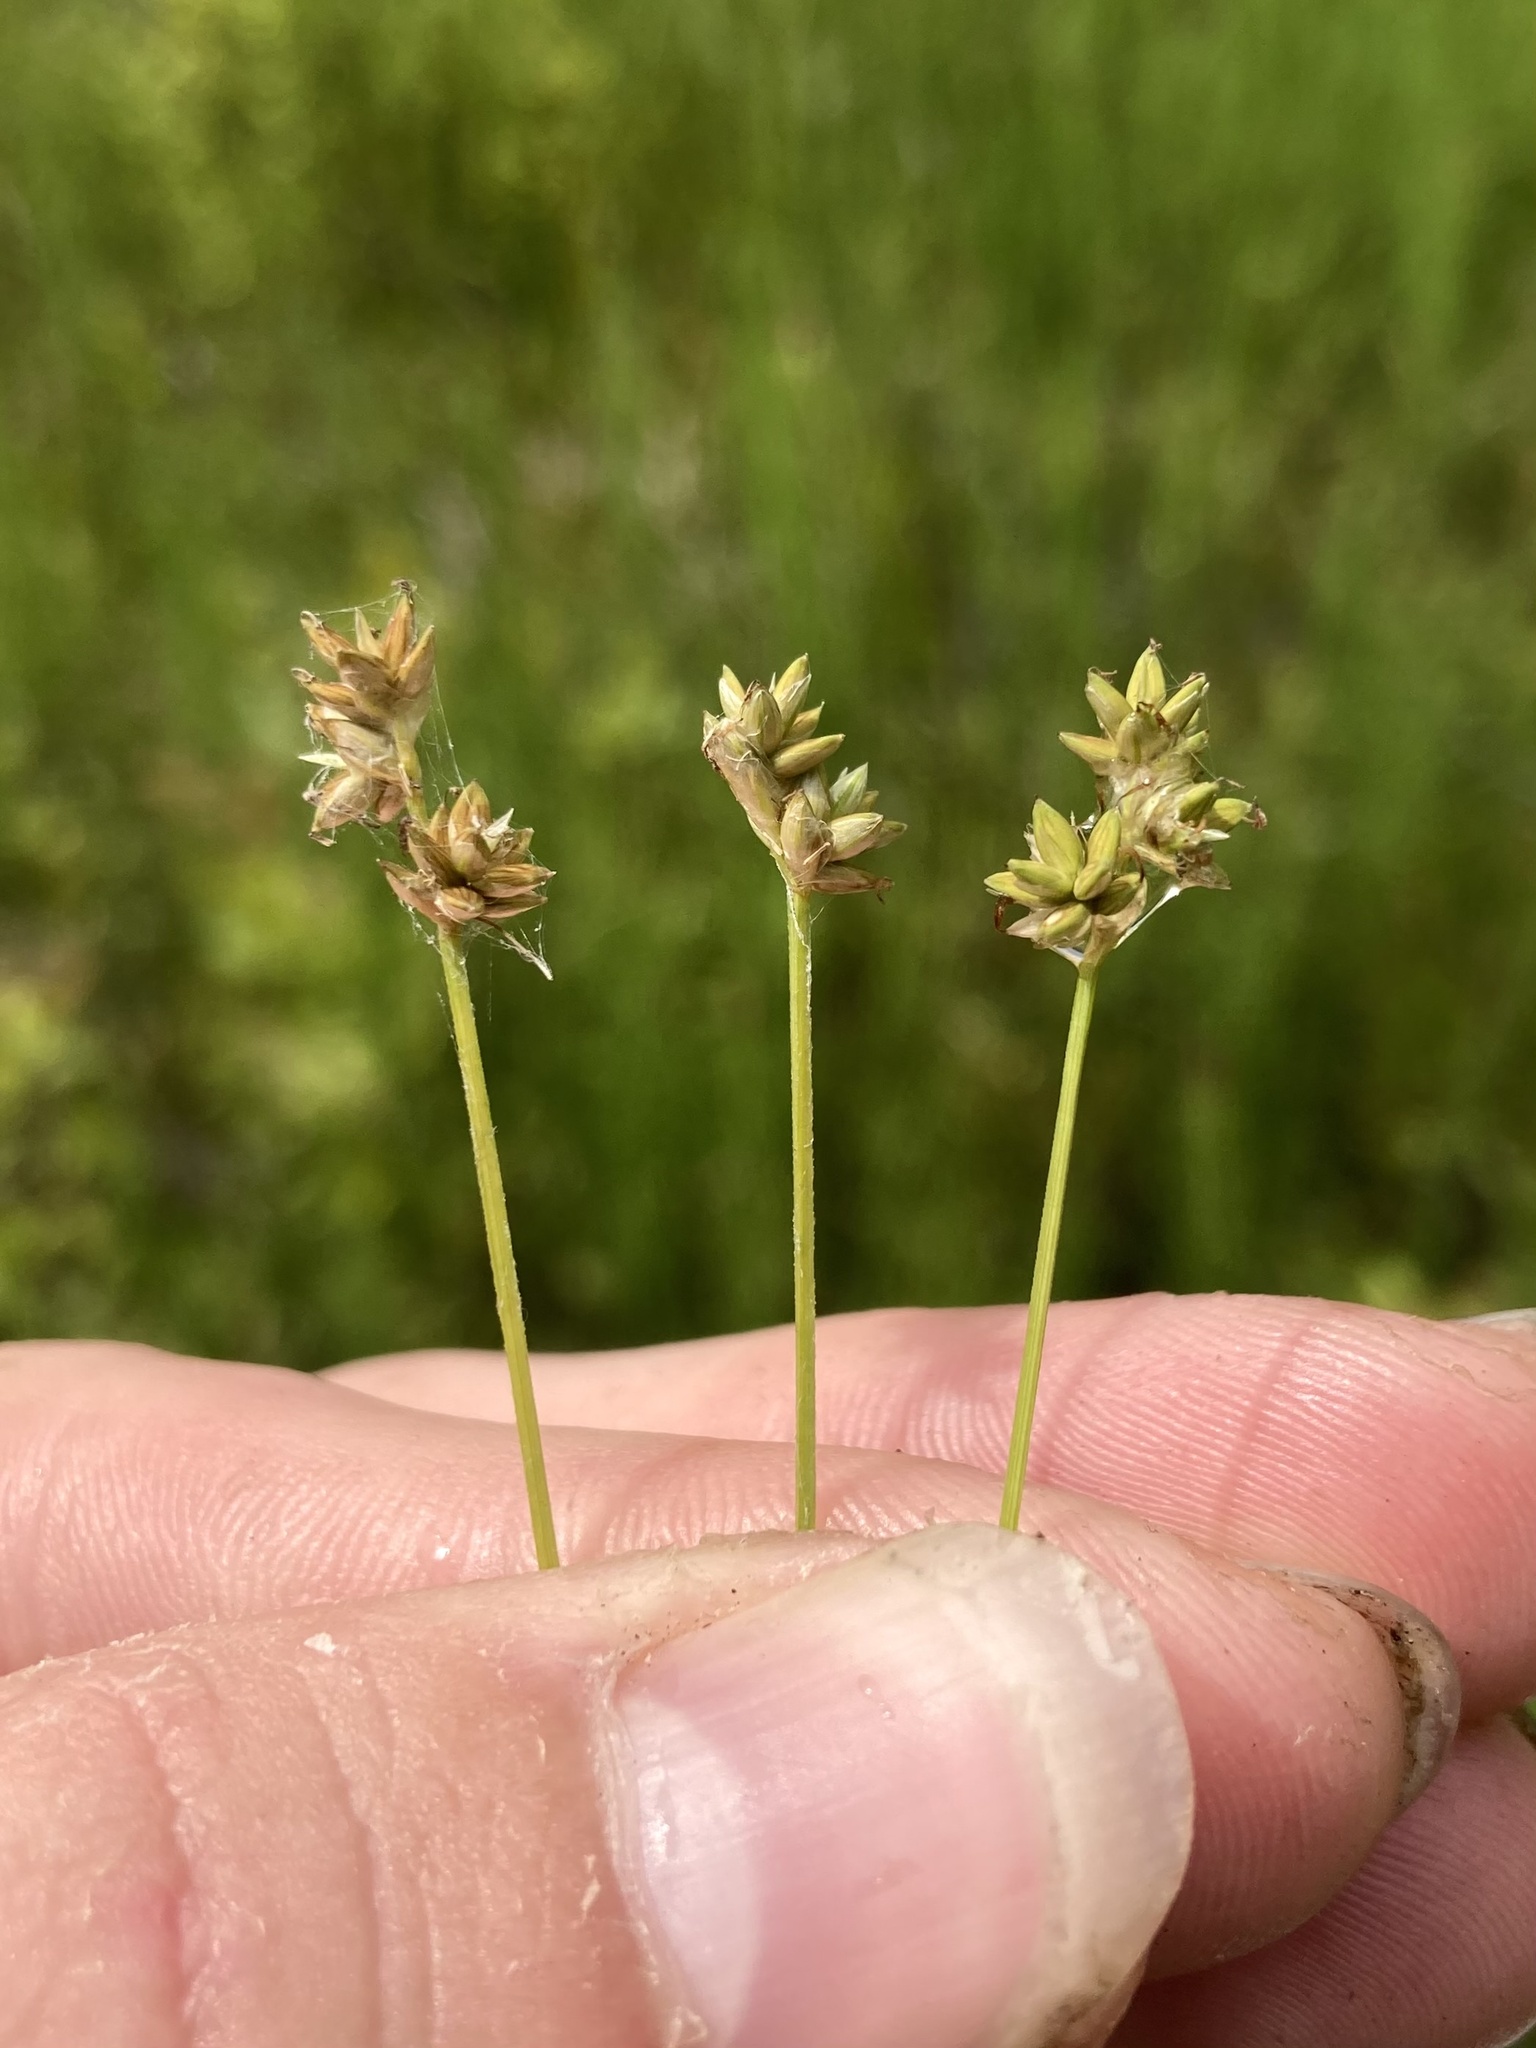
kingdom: Plantae
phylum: Tracheophyta
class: Liliopsida
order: Poales
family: Cyperaceae
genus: Carex
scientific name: Carex tenuiflora
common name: Sparse-flowered sedge
